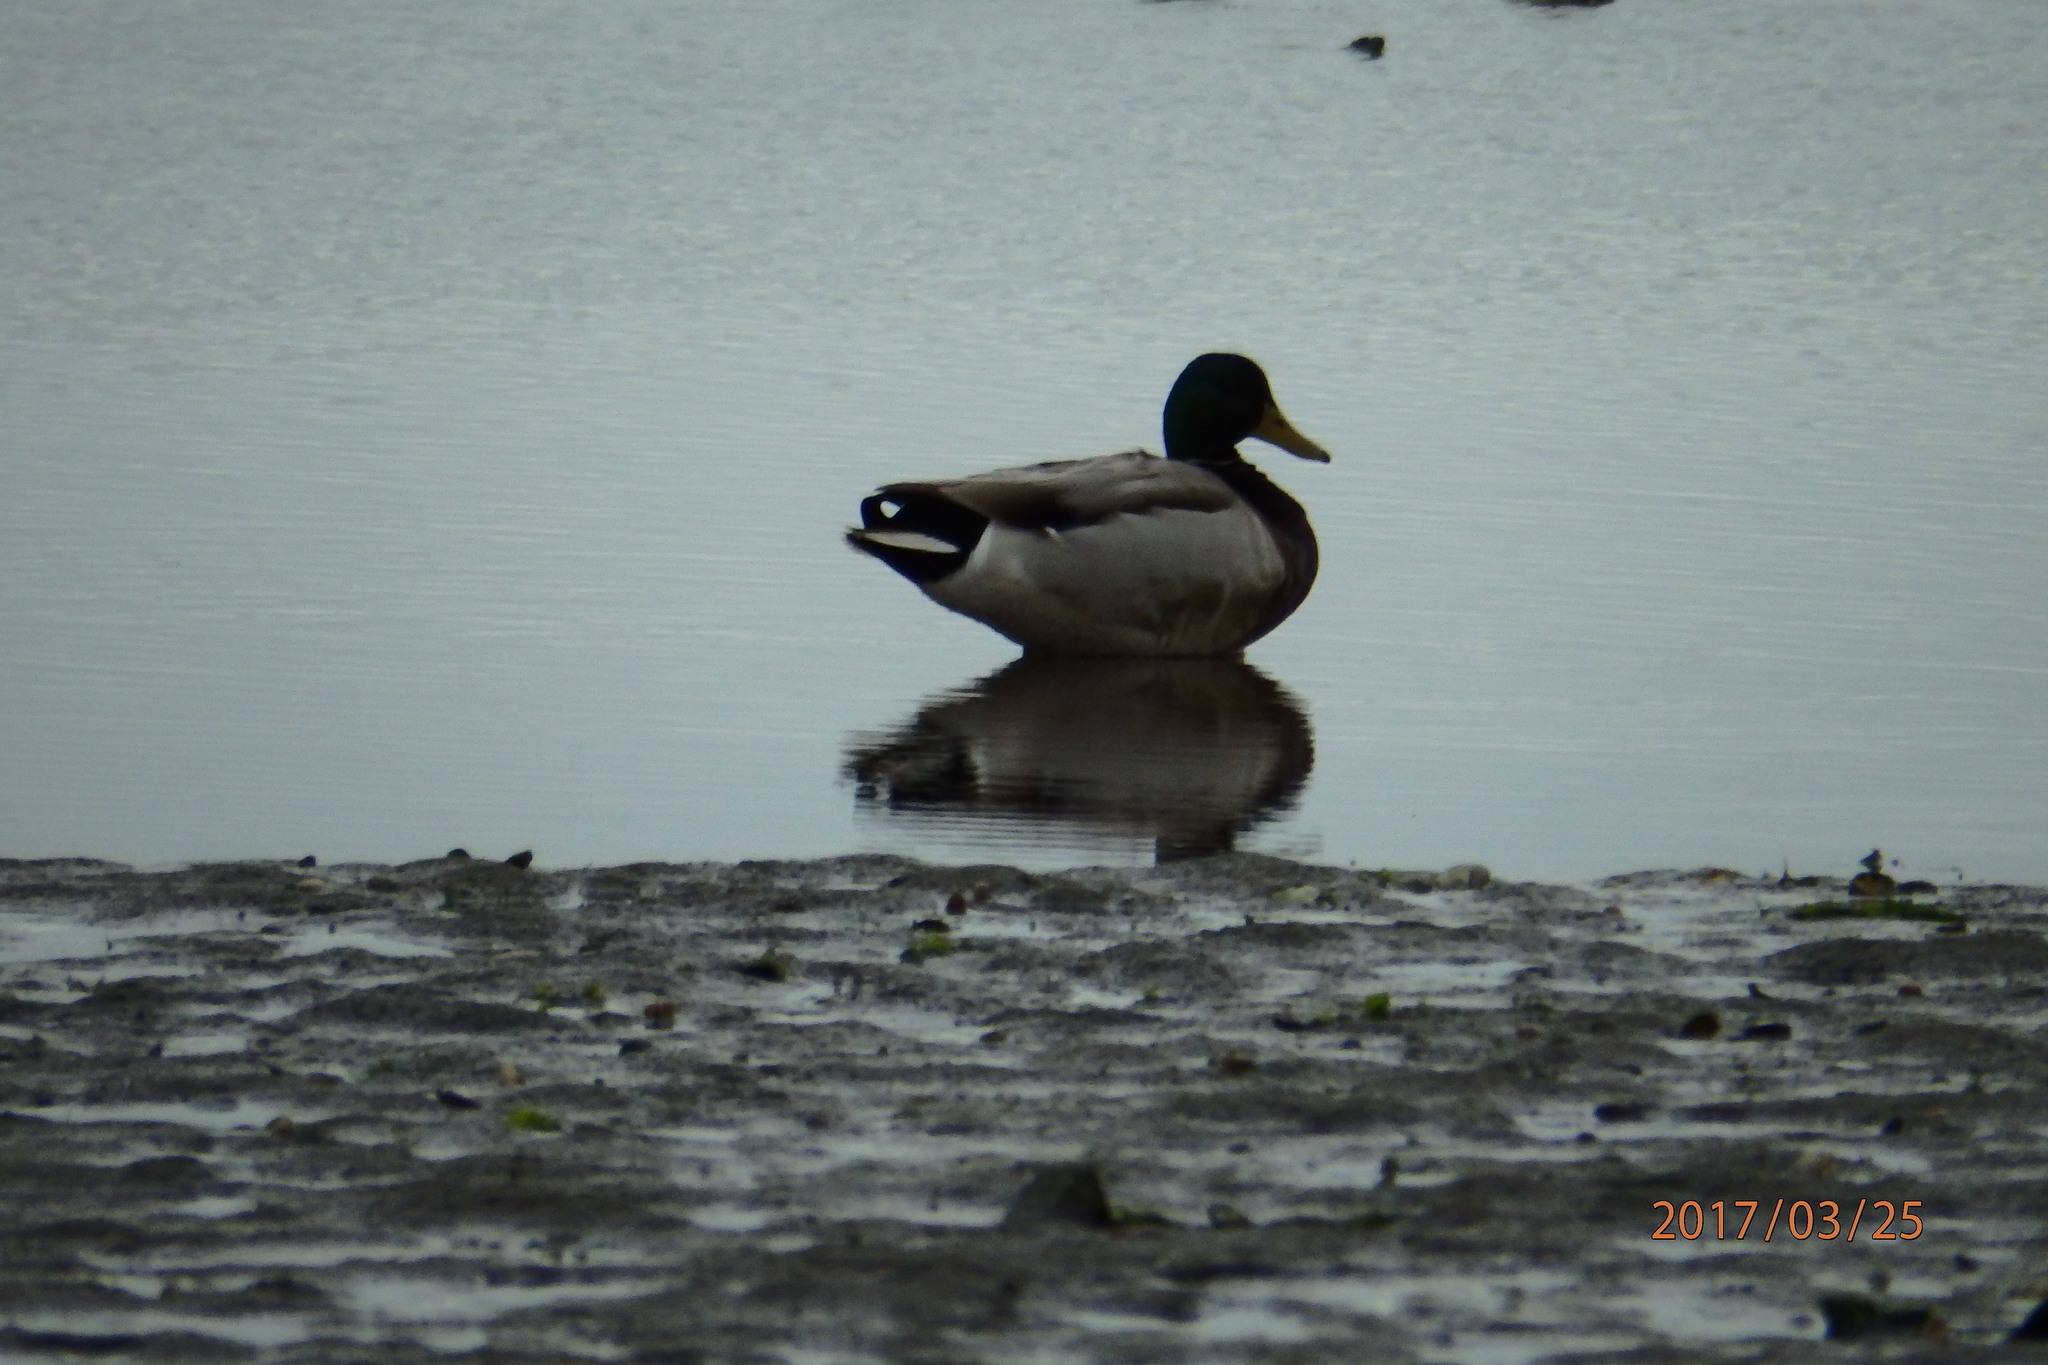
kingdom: Animalia
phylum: Chordata
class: Aves
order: Anseriformes
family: Anatidae
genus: Anas
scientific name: Anas platyrhynchos
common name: Mallard
